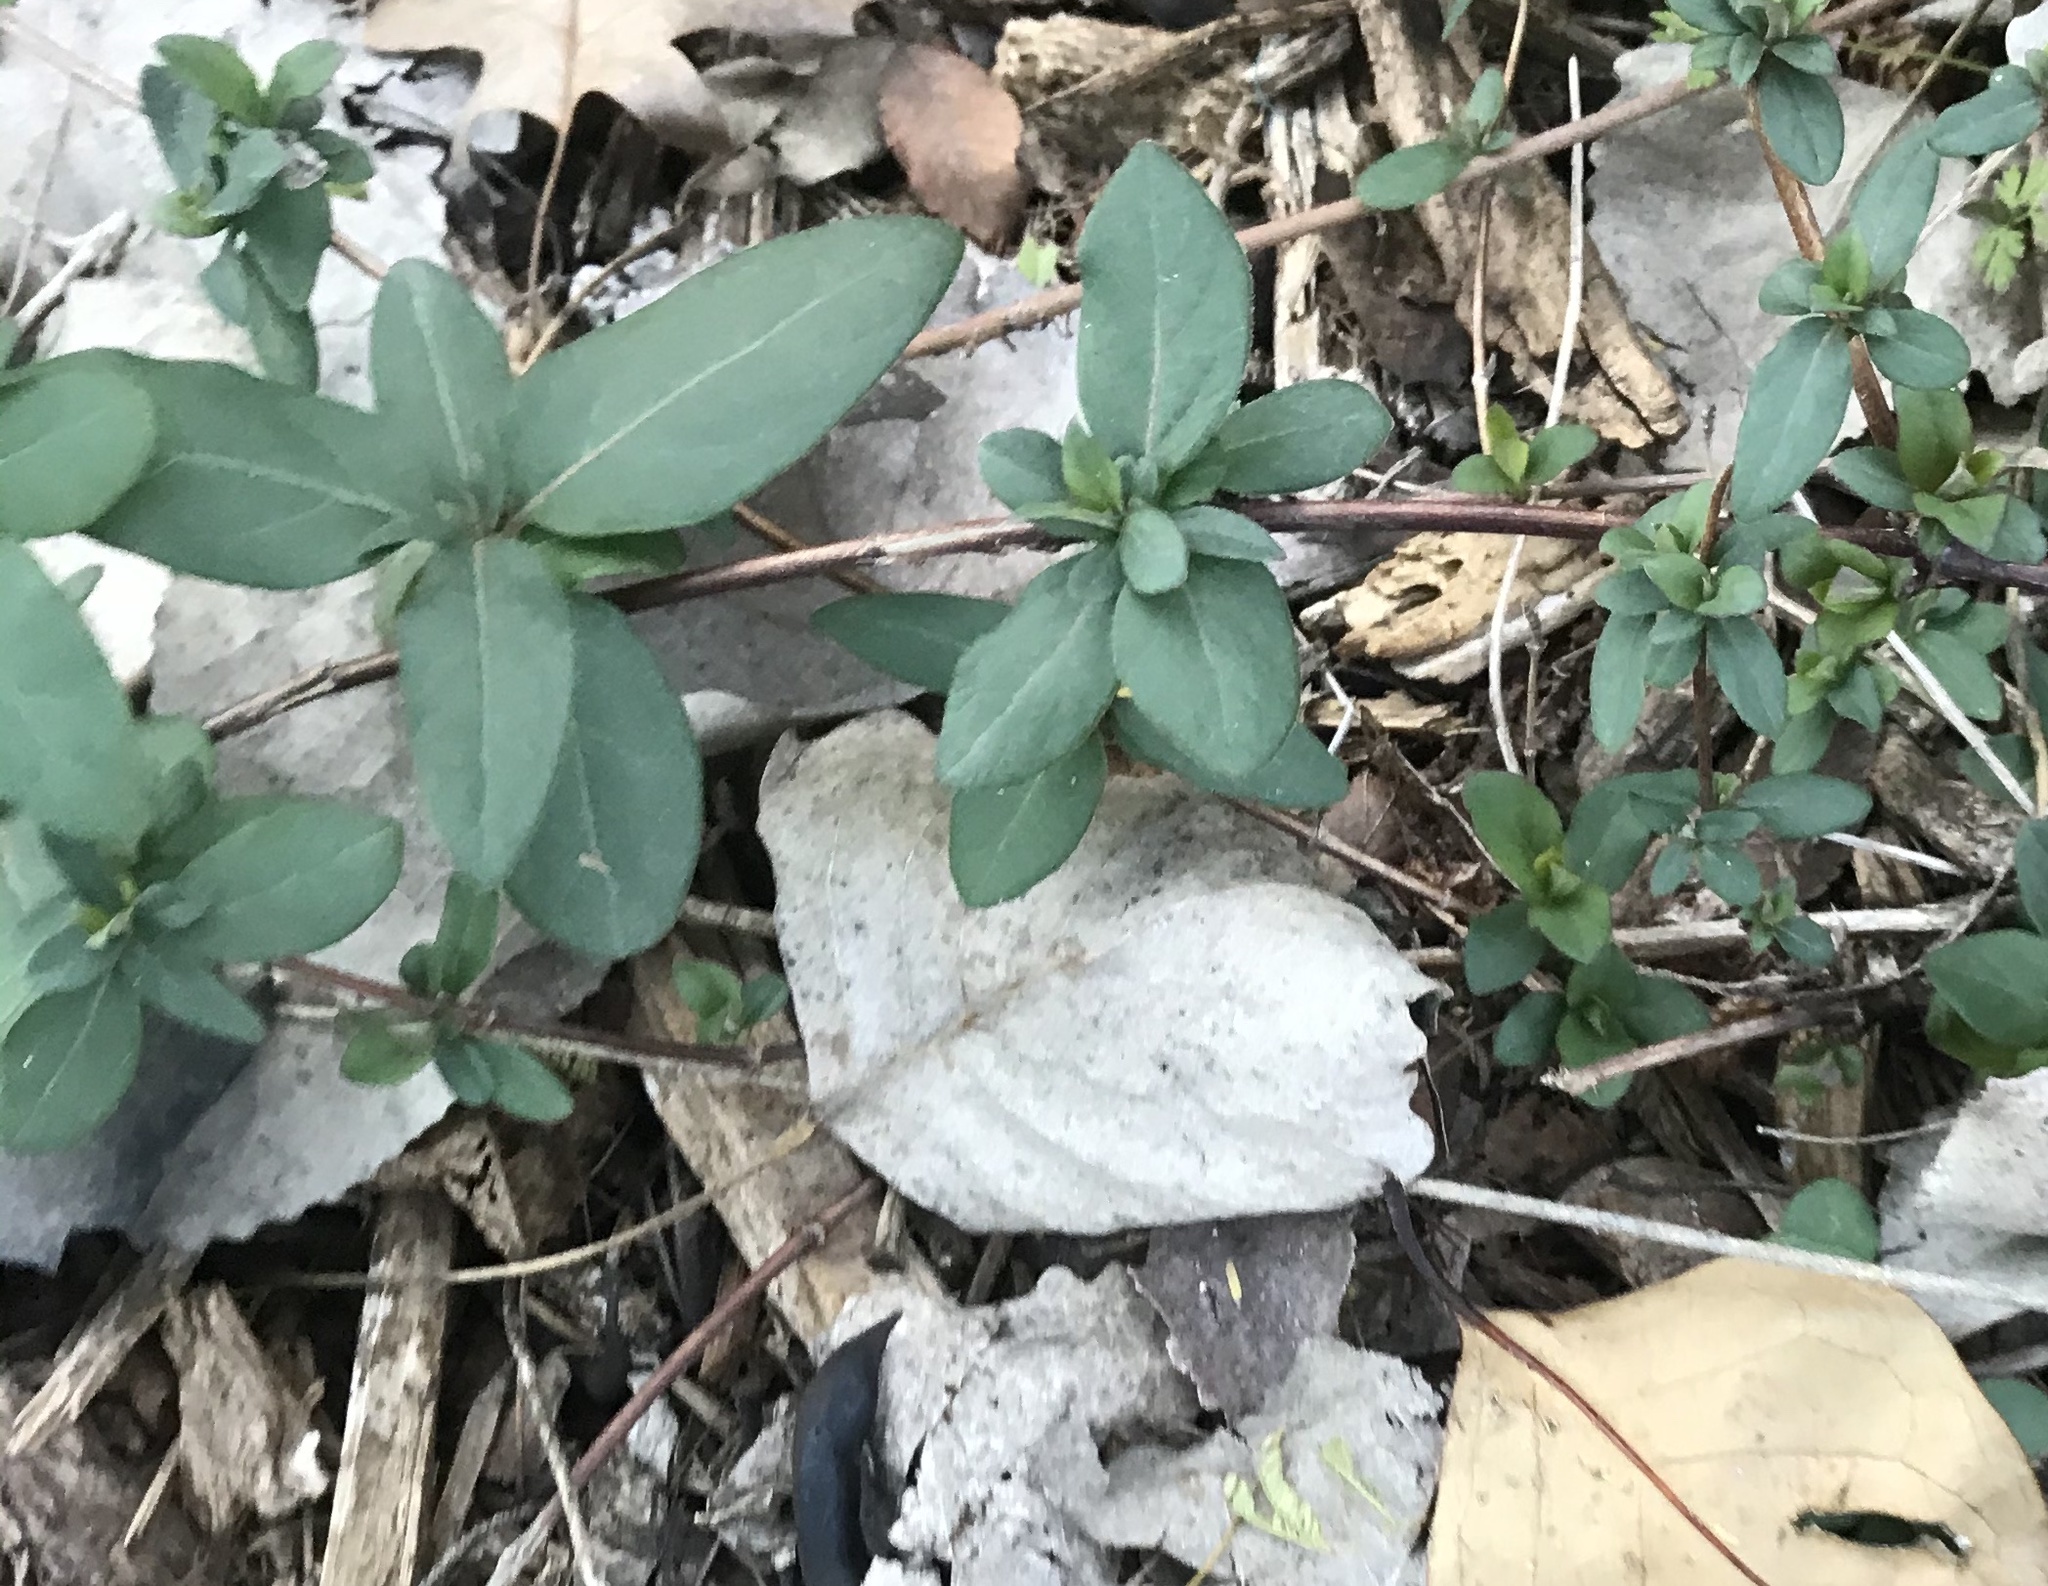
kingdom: Plantae
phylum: Tracheophyta
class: Magnoliopsida
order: Dipsacales
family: Caprifoliaceae
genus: Lonicera
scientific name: Lonicera japonica
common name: Japanese honeysuckle
